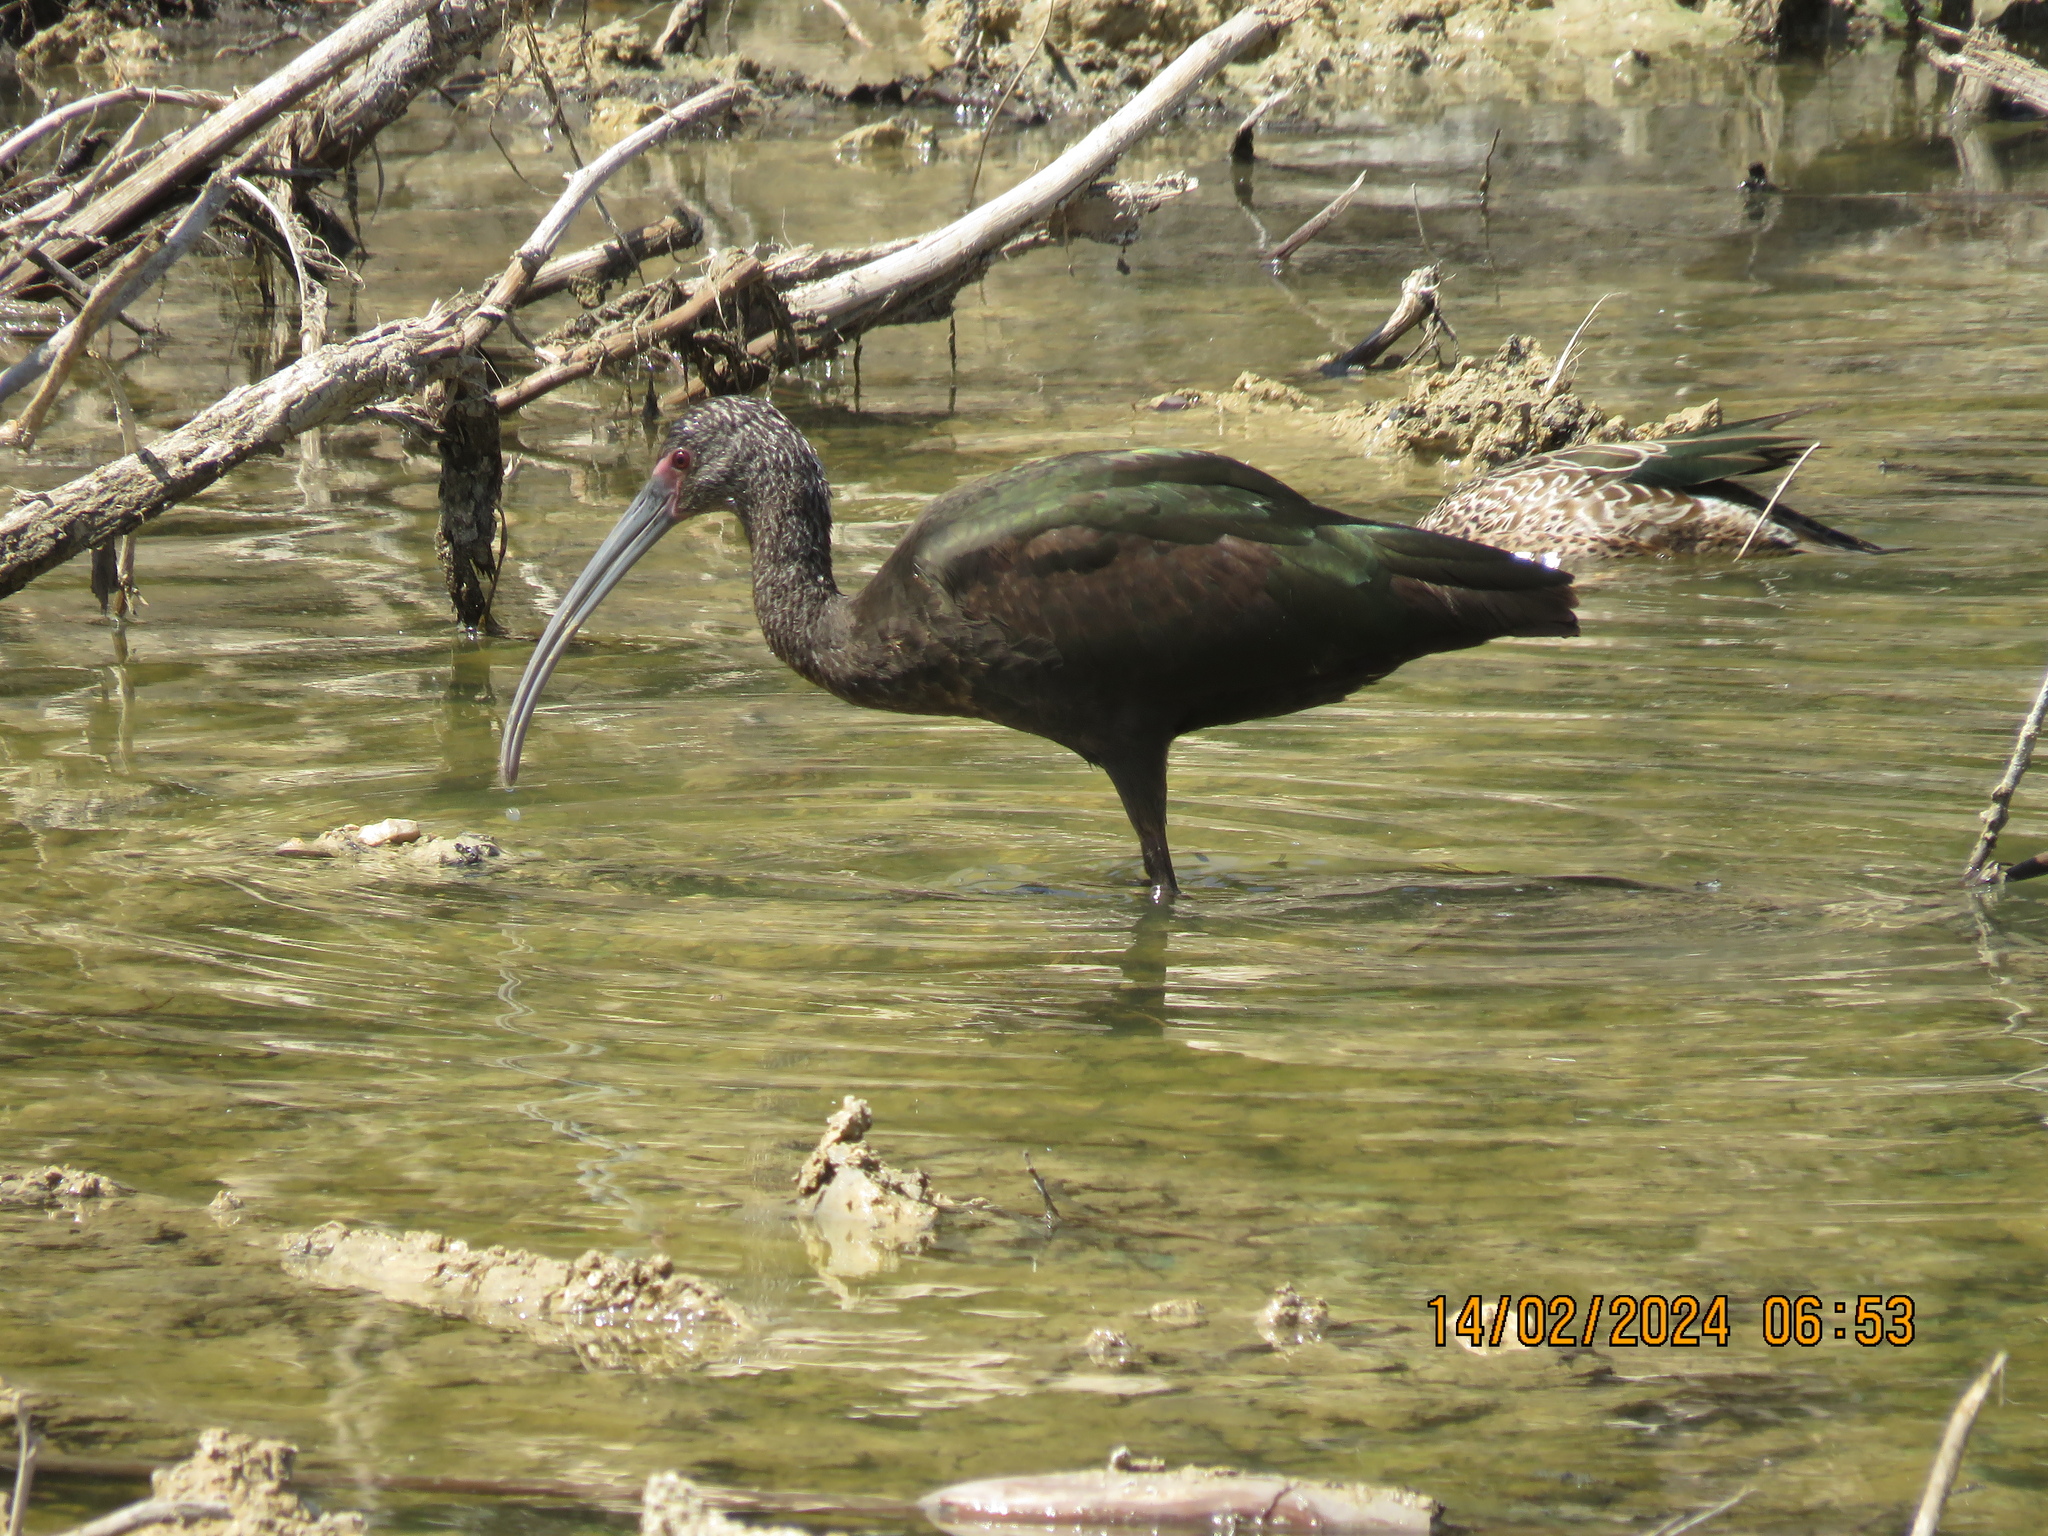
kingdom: Animalia
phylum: Chordata
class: Aves
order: Pelecaniformes
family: Threskiornithidae
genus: Plegadis
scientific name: Plegadis chihi
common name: White-faced ibis
